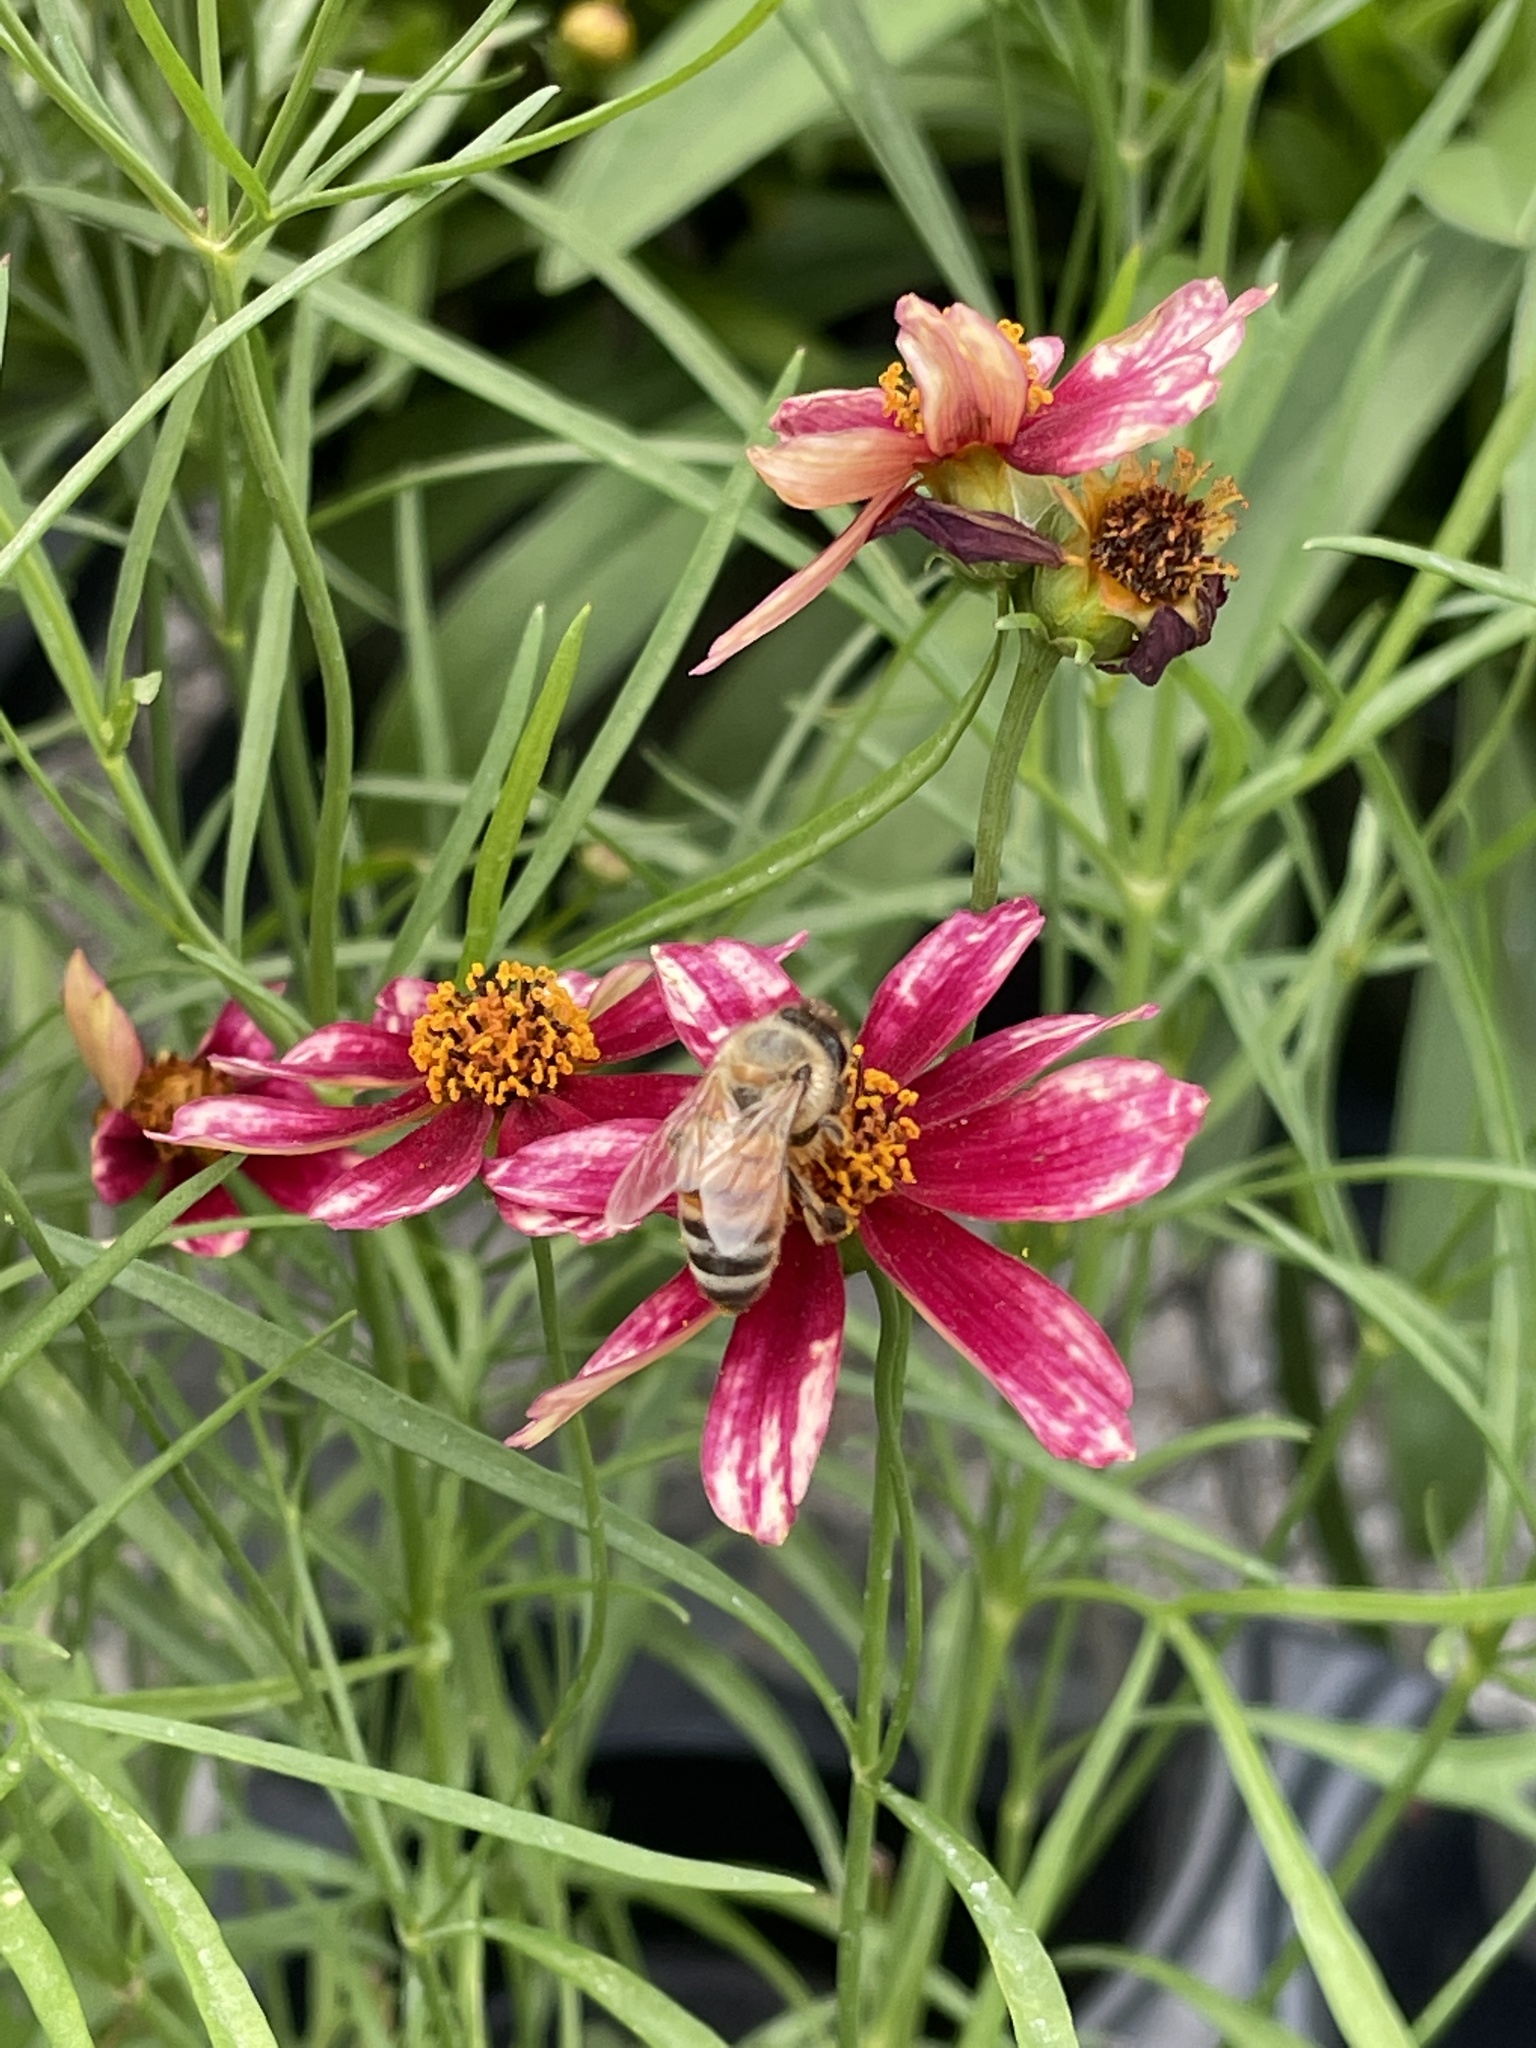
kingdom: Animalia
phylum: Arthropoda
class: Insecta
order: Hymenoptera
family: Apidae
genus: Apis
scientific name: Apis mellifera
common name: Honey bee
